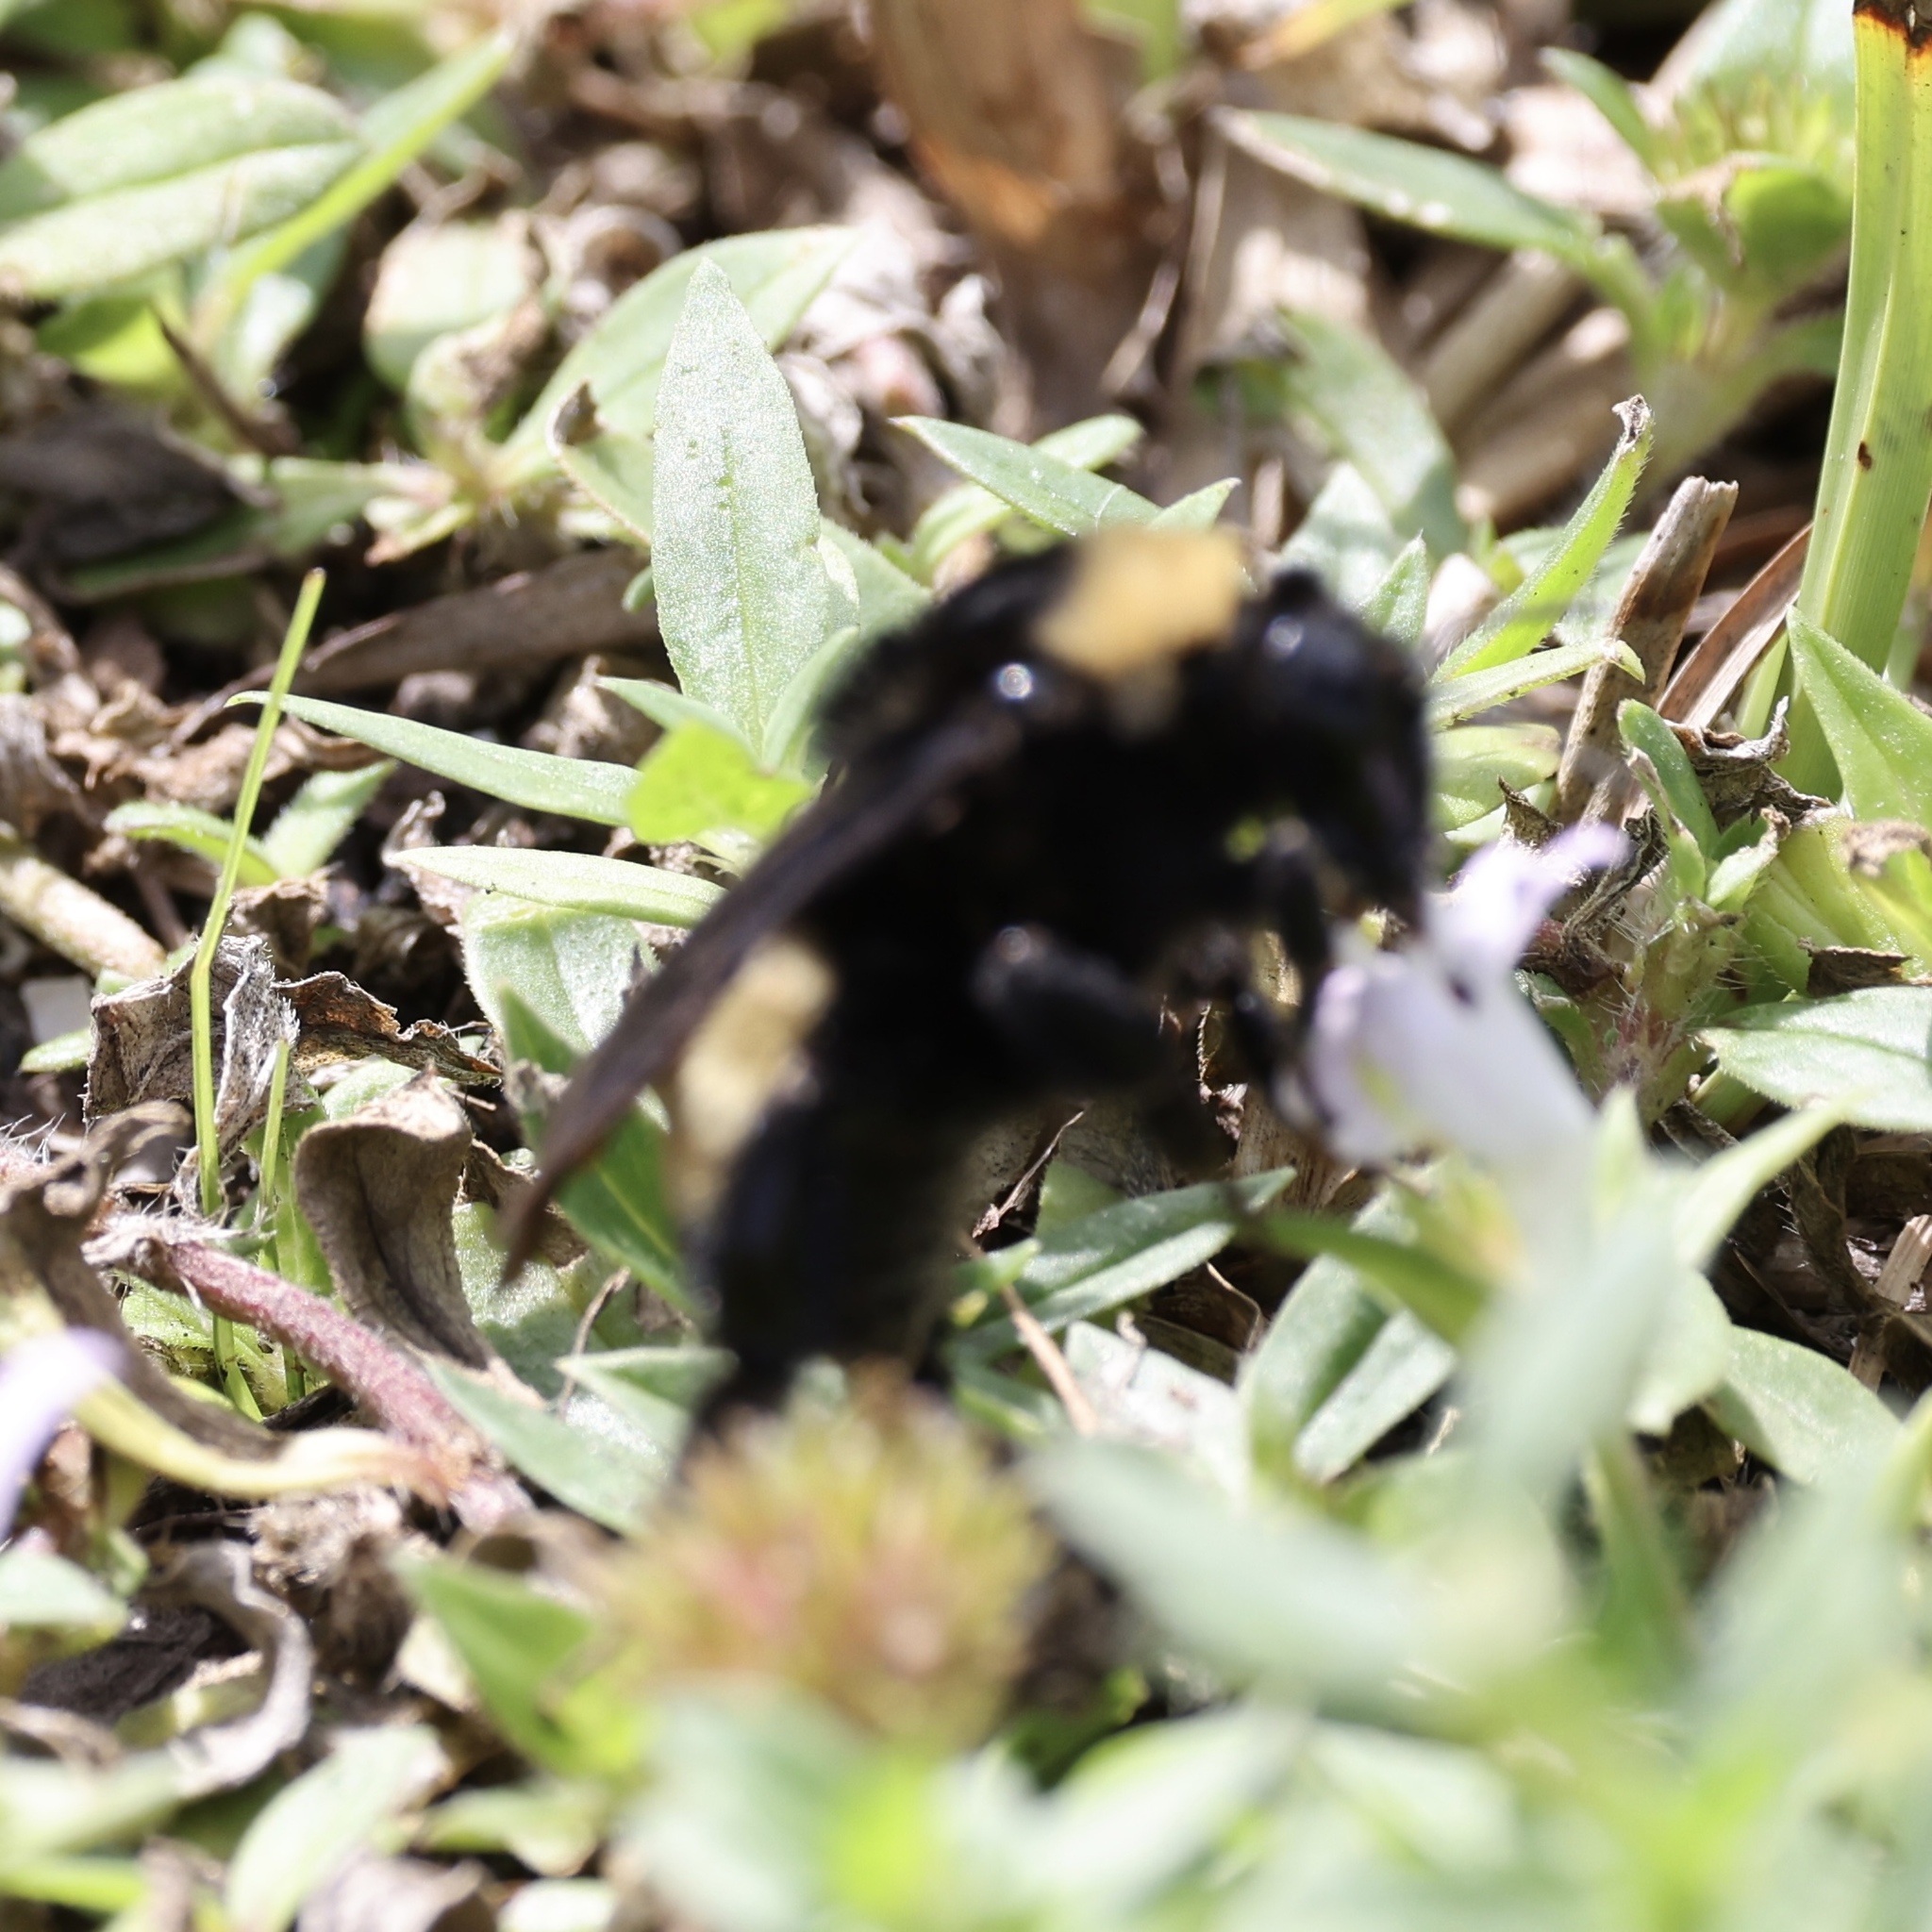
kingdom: Animalia
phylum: Arthropoda
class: Insecta
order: Hymenoptera
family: Apidae
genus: Bombus
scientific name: Bombus pensylvanicus
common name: Bumble bee
